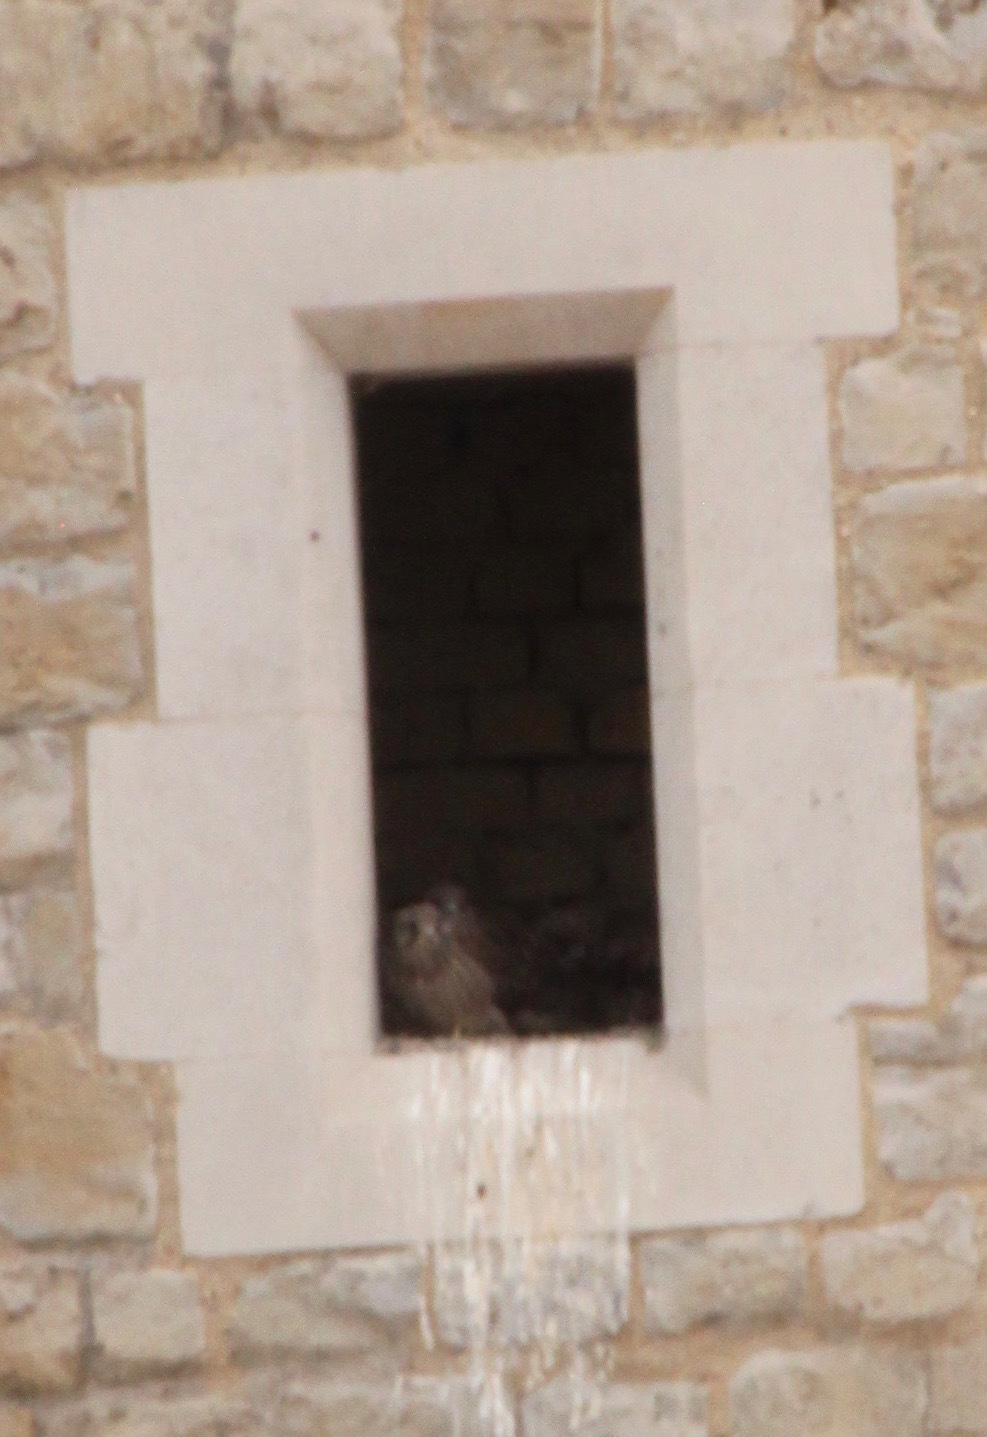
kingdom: Animalia
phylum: Chordata
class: Aves
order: Falconiformes
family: Falconidae
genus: Falco
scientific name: Falco tinnunculus
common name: Common kestrel
